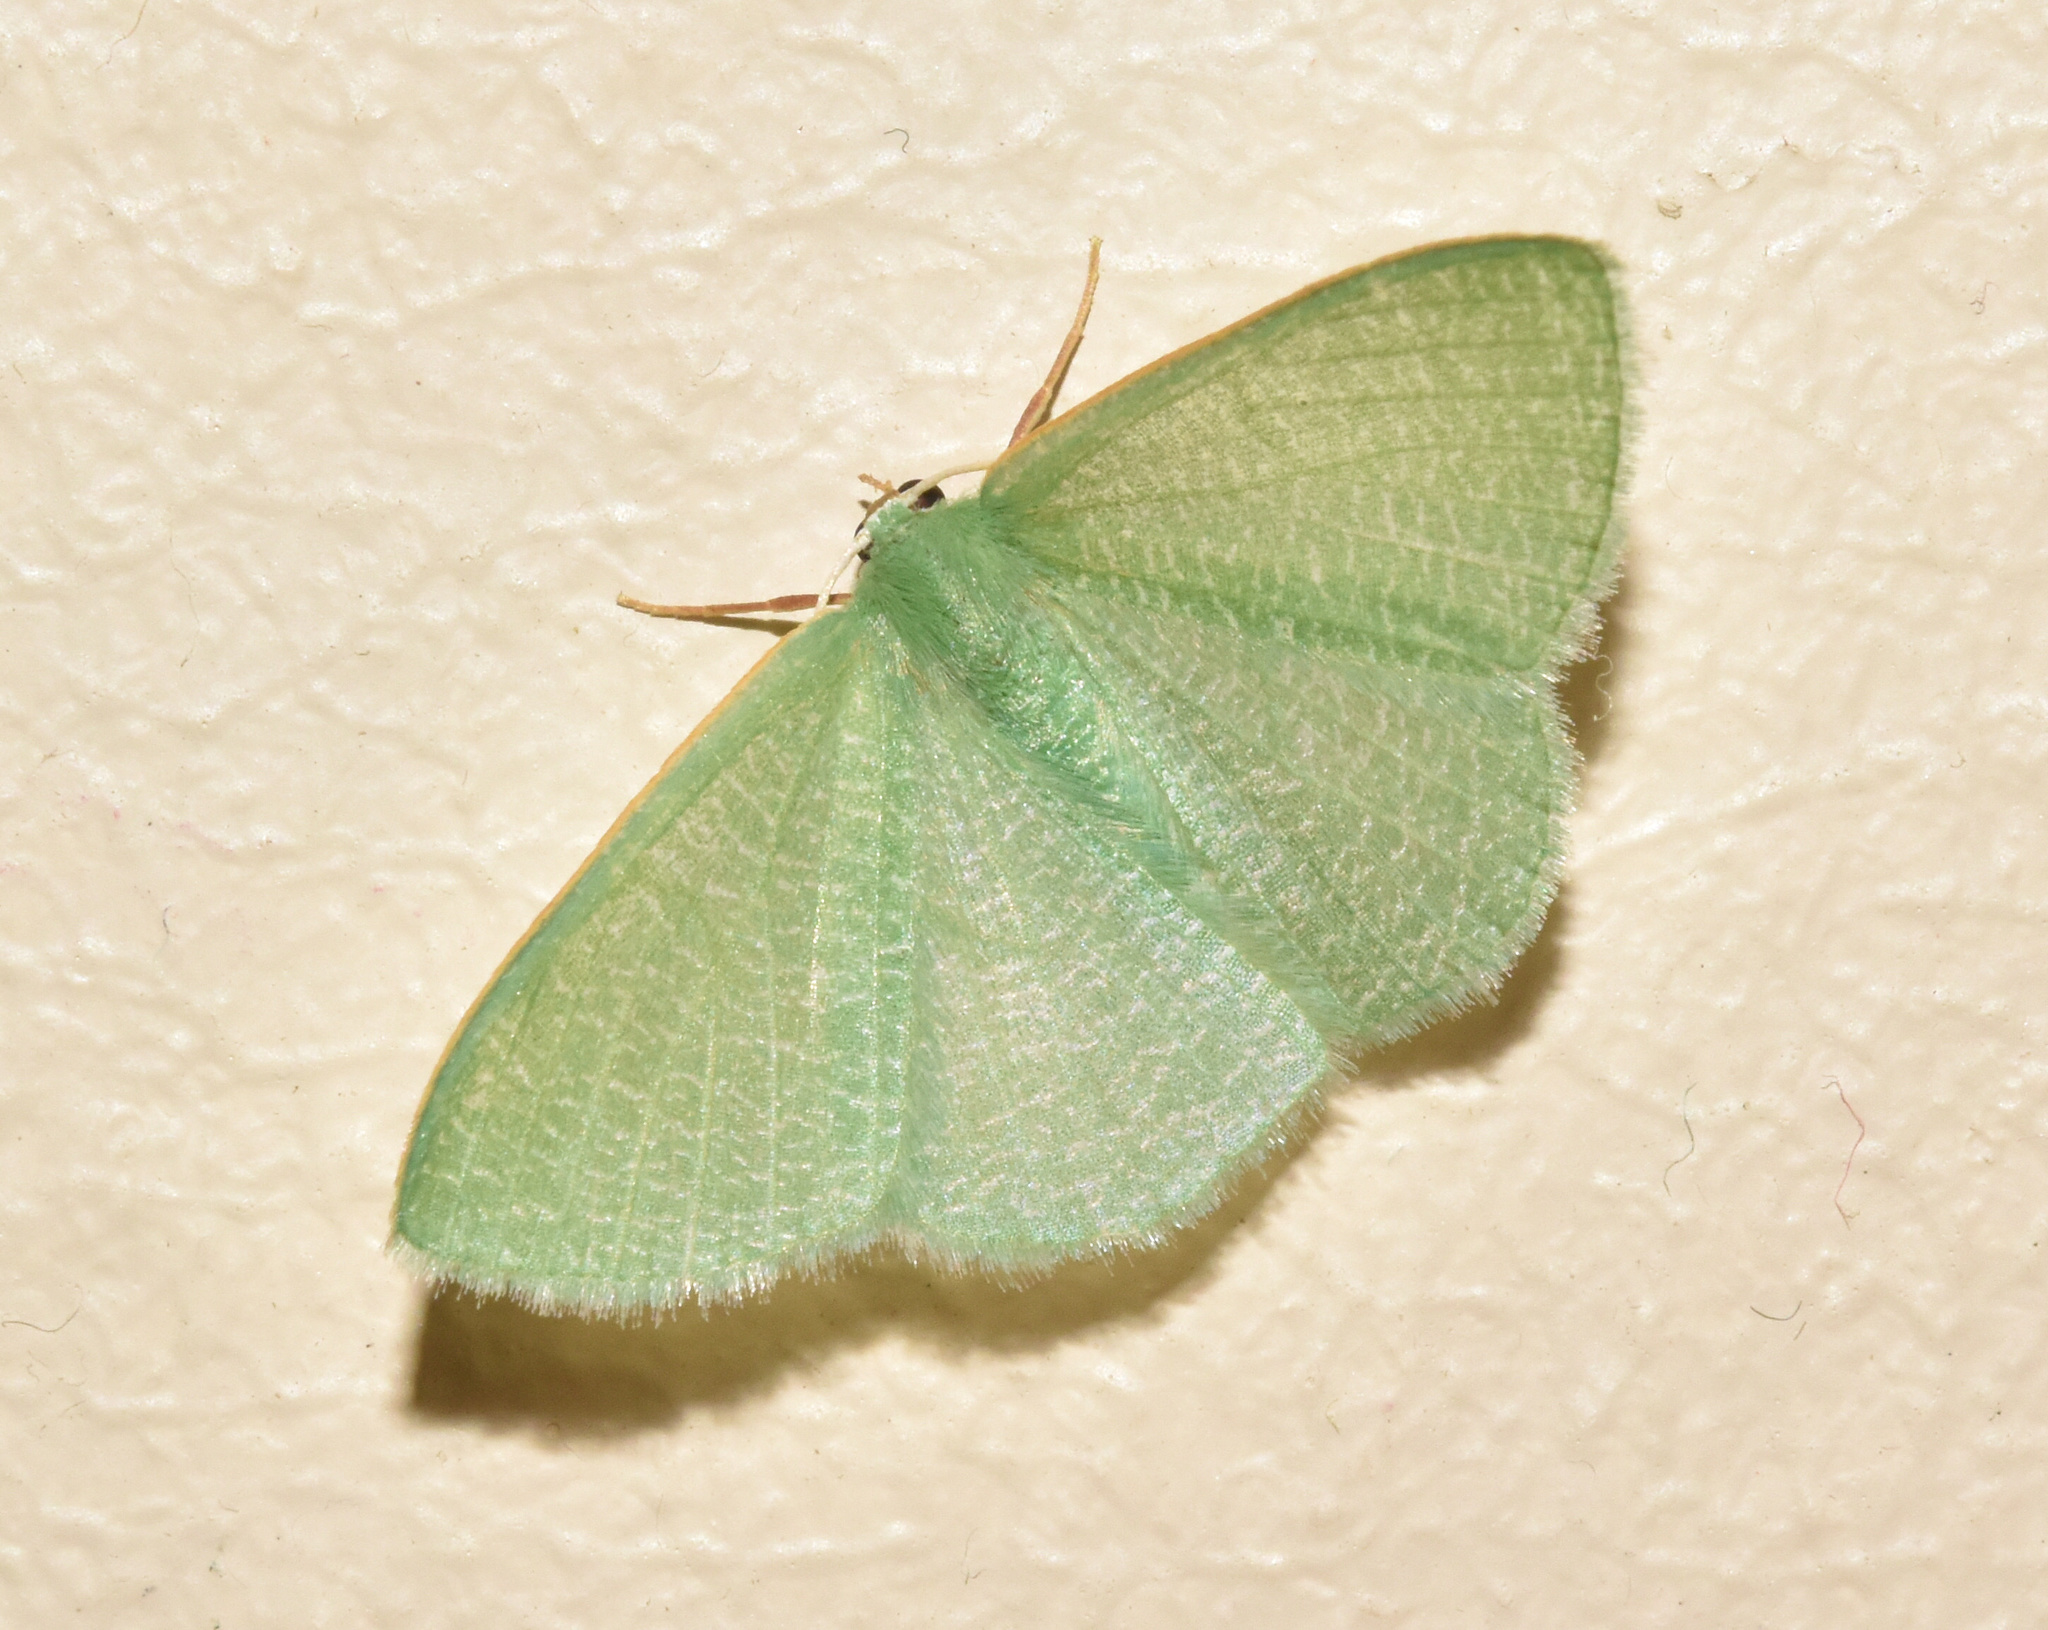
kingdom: Animalia
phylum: Arthropoda
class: Insecta
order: Lepidoptera
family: Geometridae
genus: Prasinocyma
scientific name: Prasinocyma vermicularia
